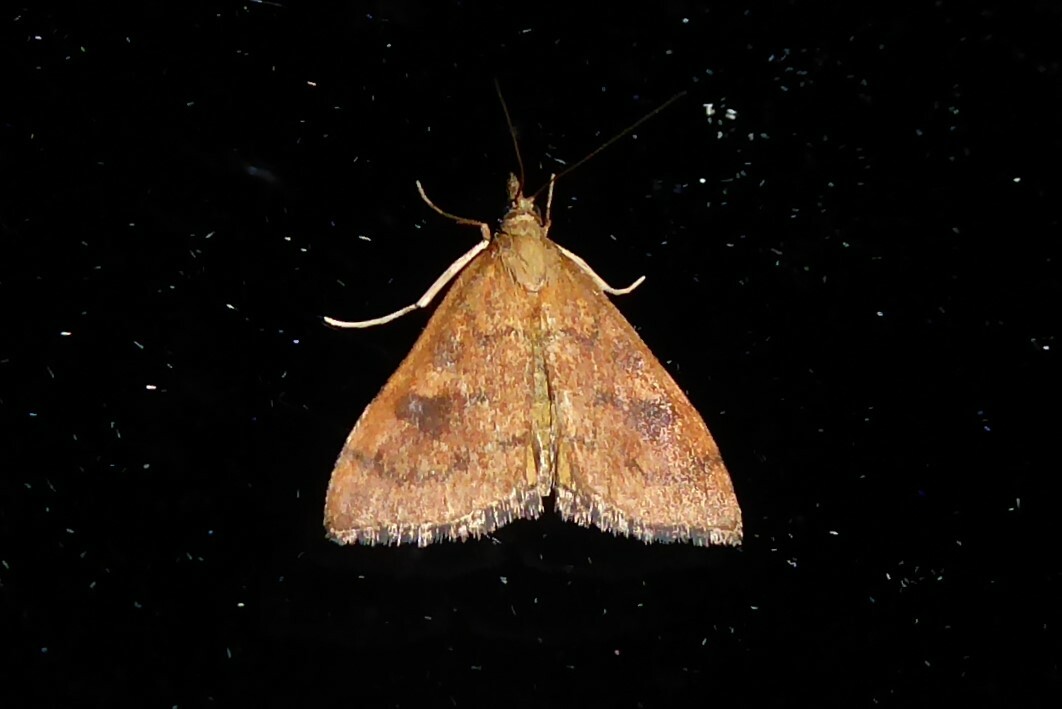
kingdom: Animalia
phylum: Arthropoda
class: Insecta
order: Lepidoptera
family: Crambidae
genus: Udea
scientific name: Udea Mnesictena flavidalis
